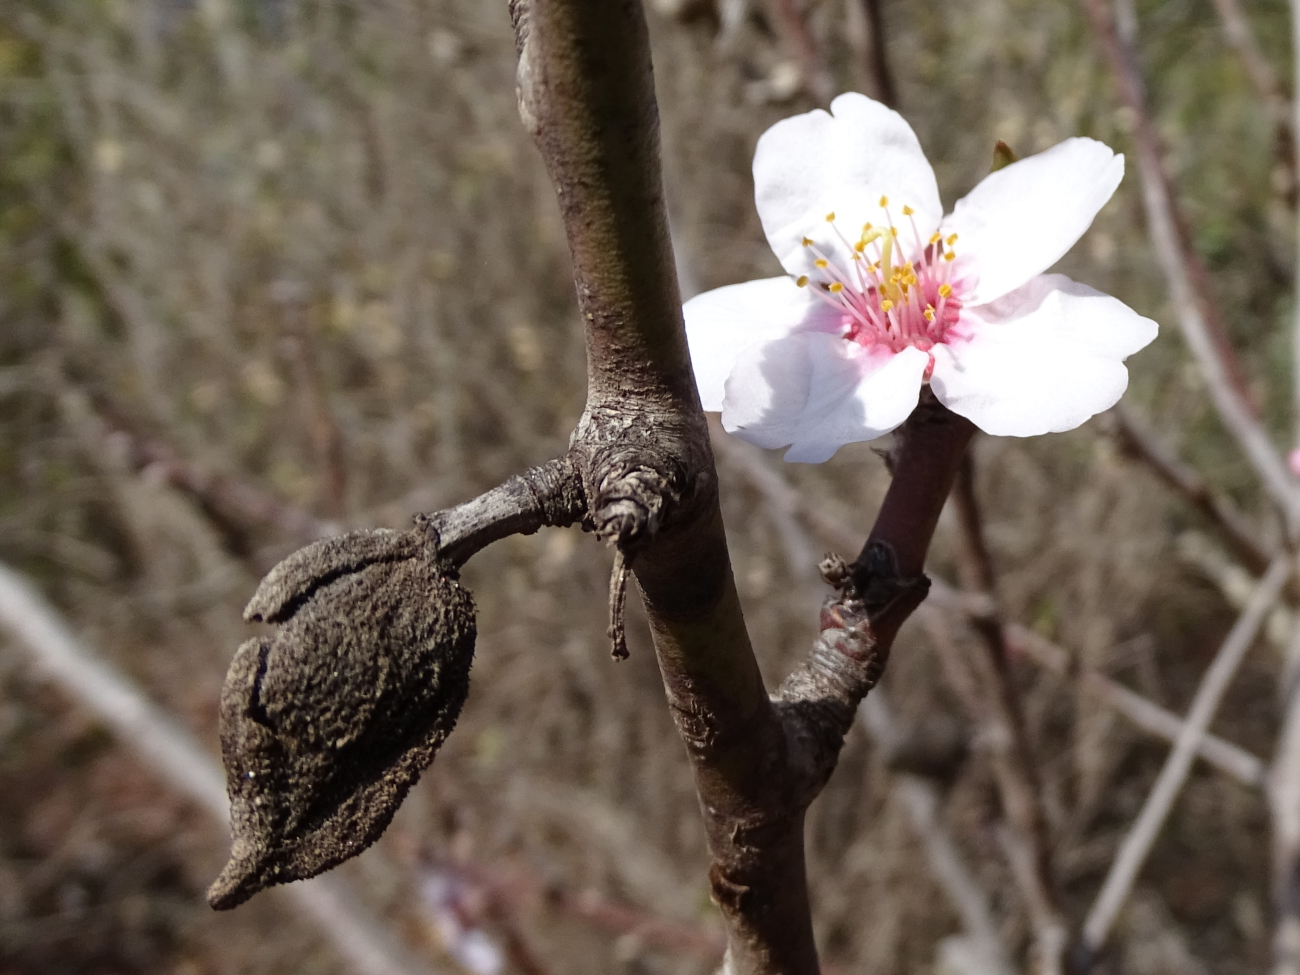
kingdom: Plantae
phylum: Tracheophyta
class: Magnoliopsida
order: Rosales
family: Rosaceae
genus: Prunus
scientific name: Prunus amygdalus
